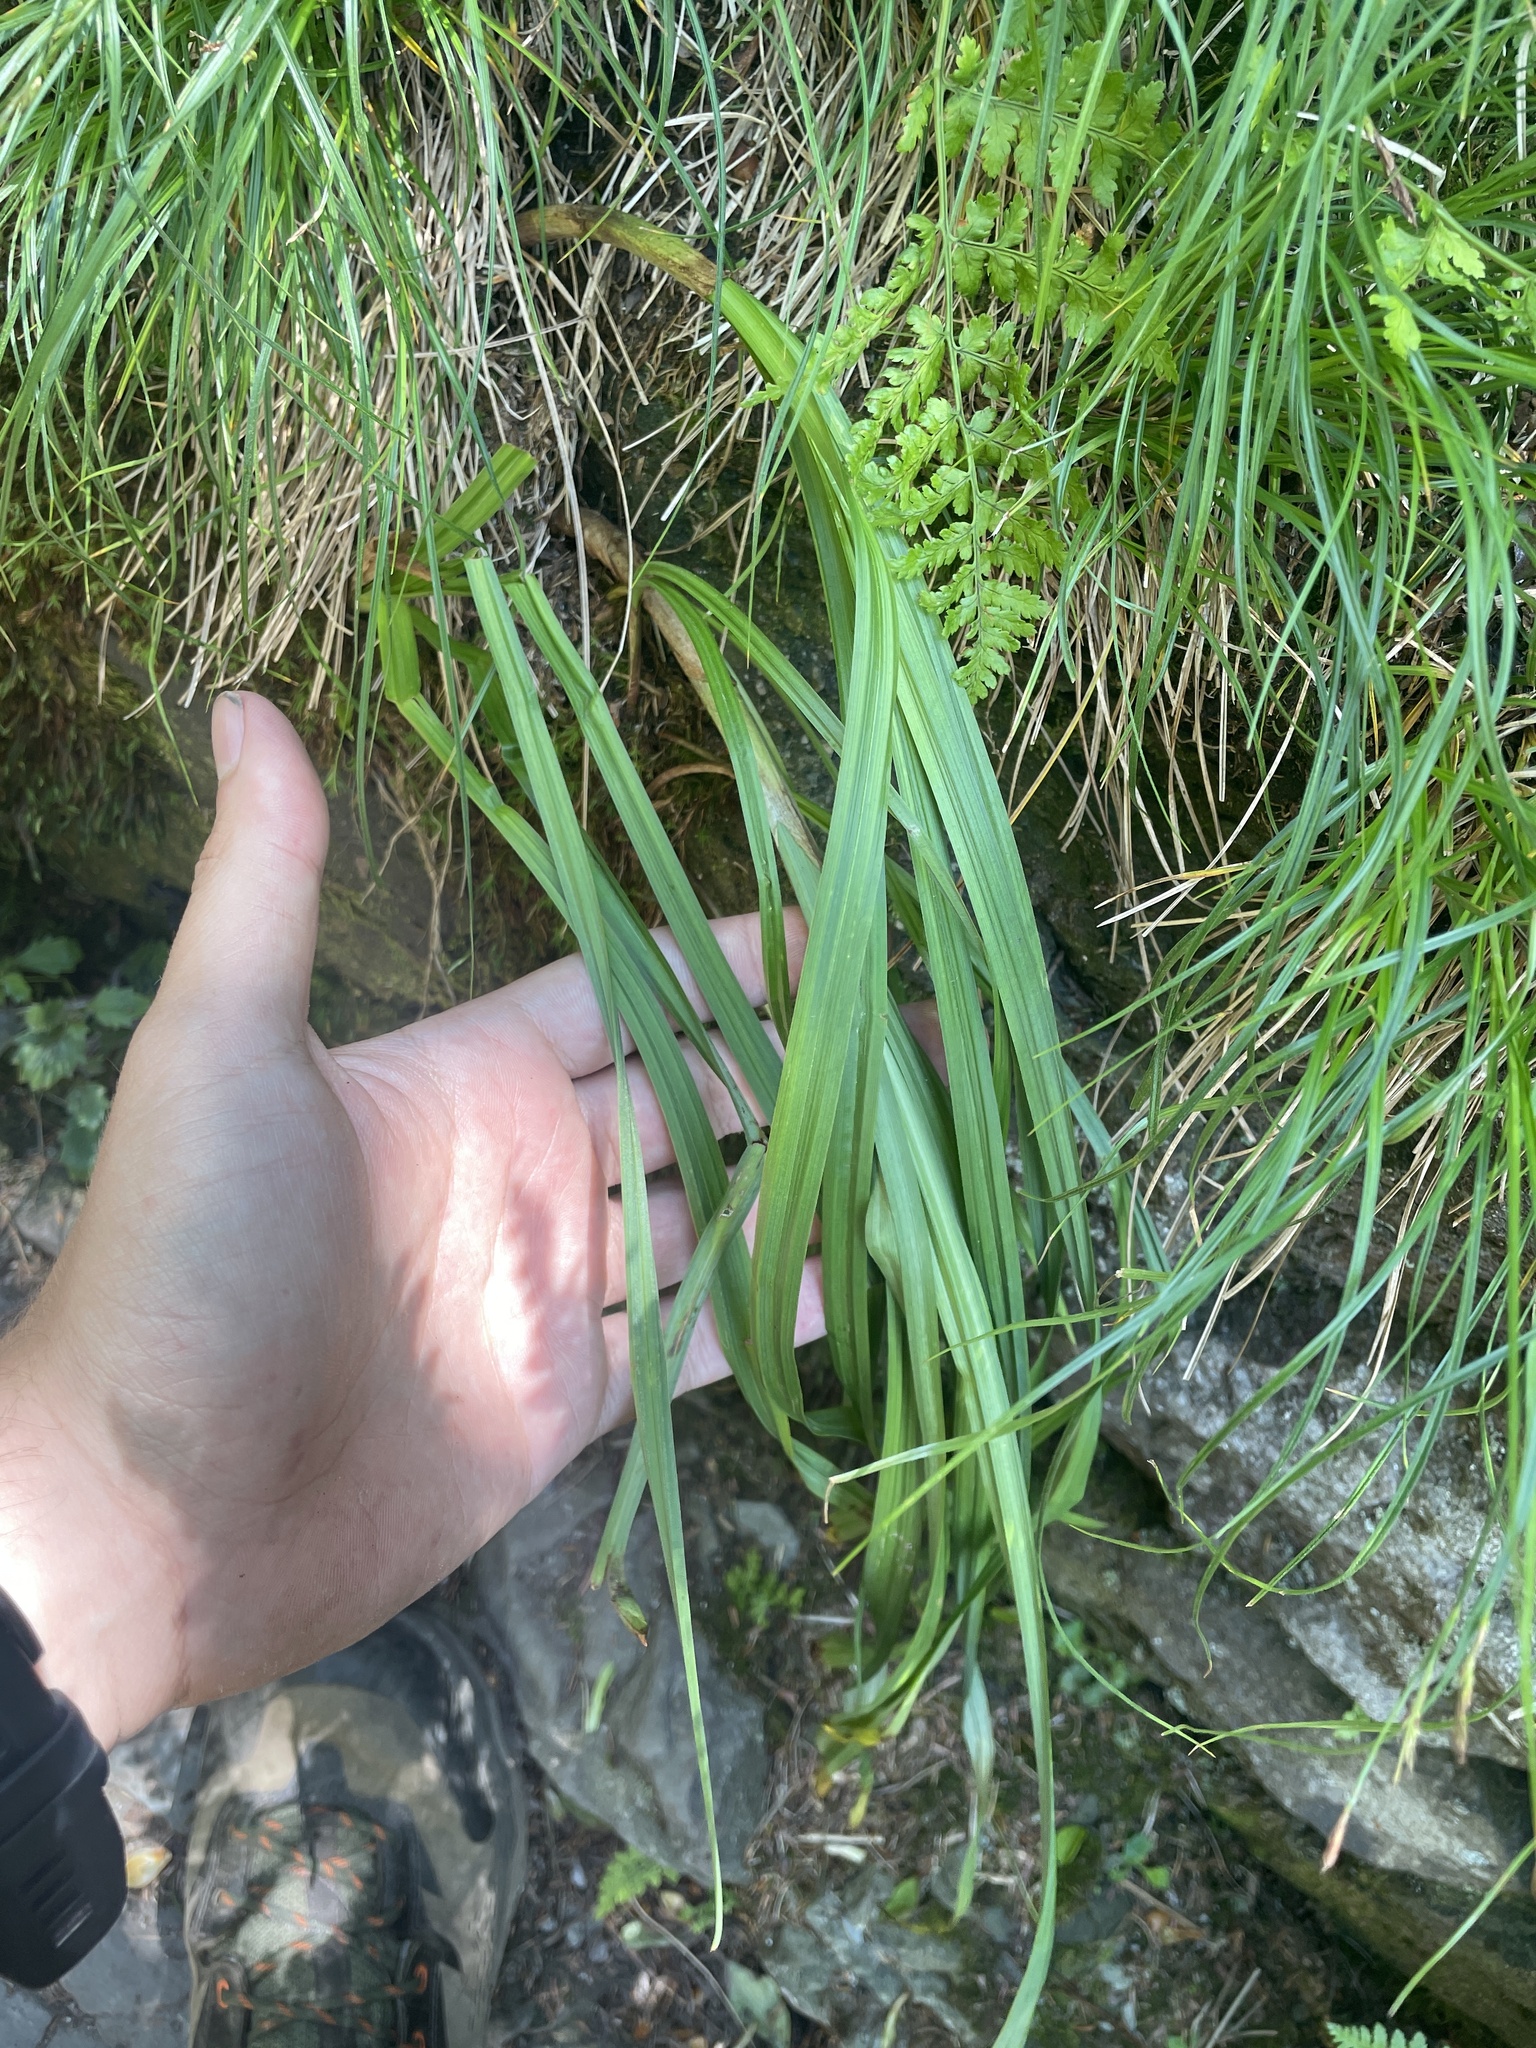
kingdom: Plantae
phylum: Tracheophyta
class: Liliopsida
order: Liliales
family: Melanthiaceae
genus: Stenanthium
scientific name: Stenanthium leimanthoides
